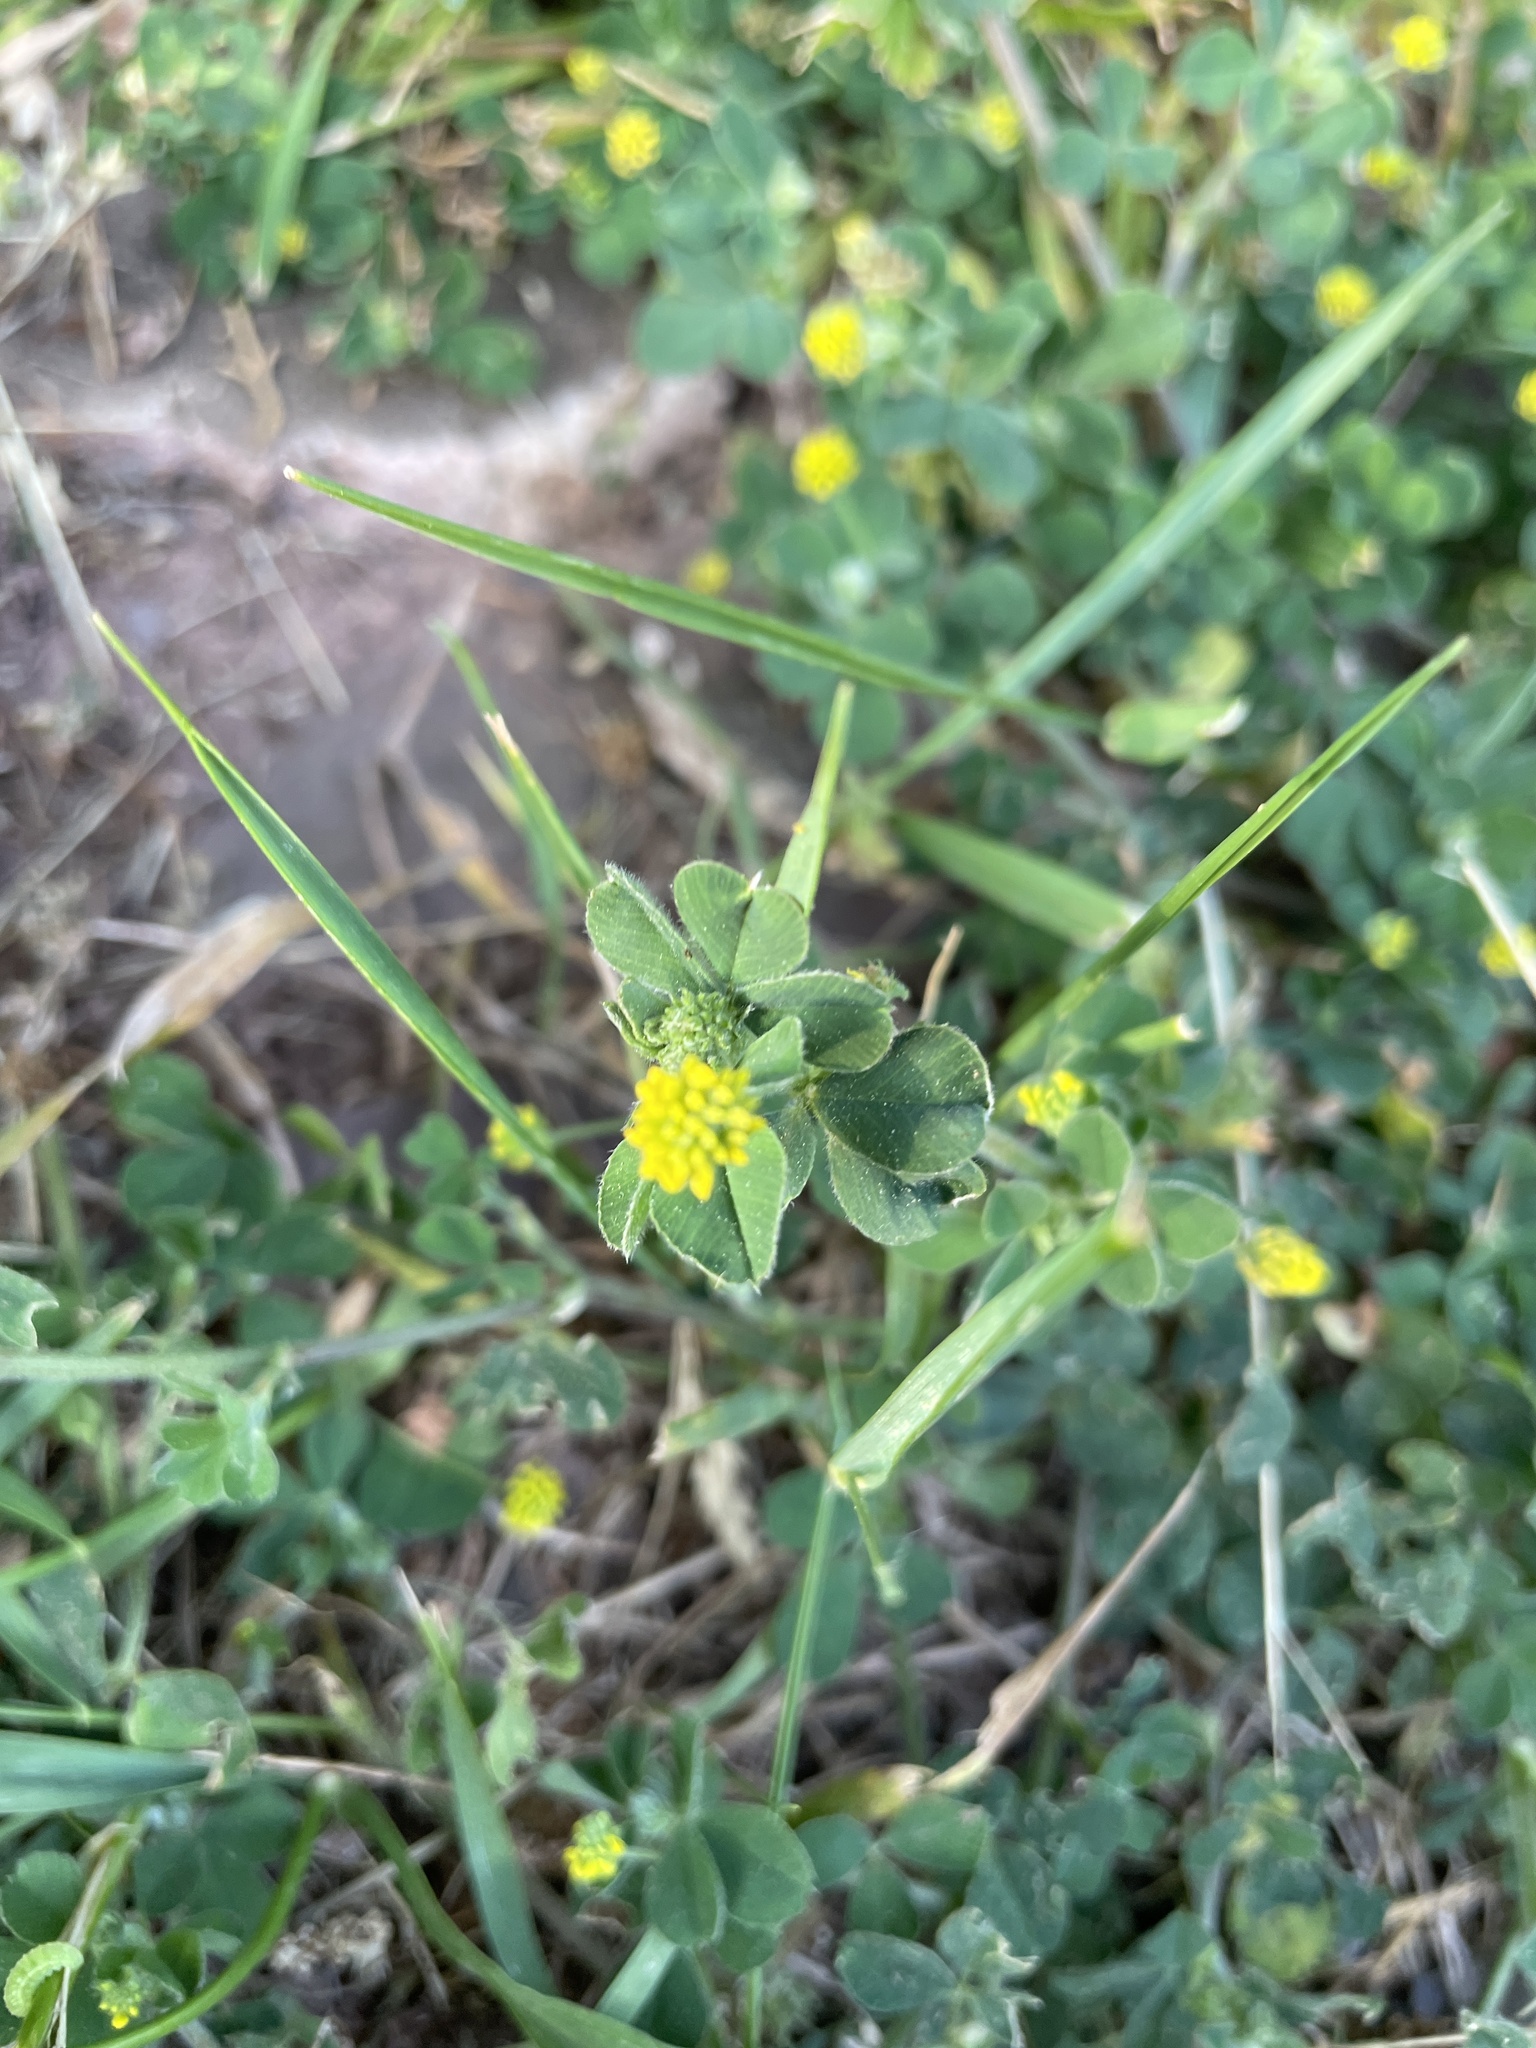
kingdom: Plantae
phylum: Tracheophyta
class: Magnoliopsida
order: Fabales
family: Fabaceae
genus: Medicago
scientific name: Medicago lupulina
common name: Black medick
